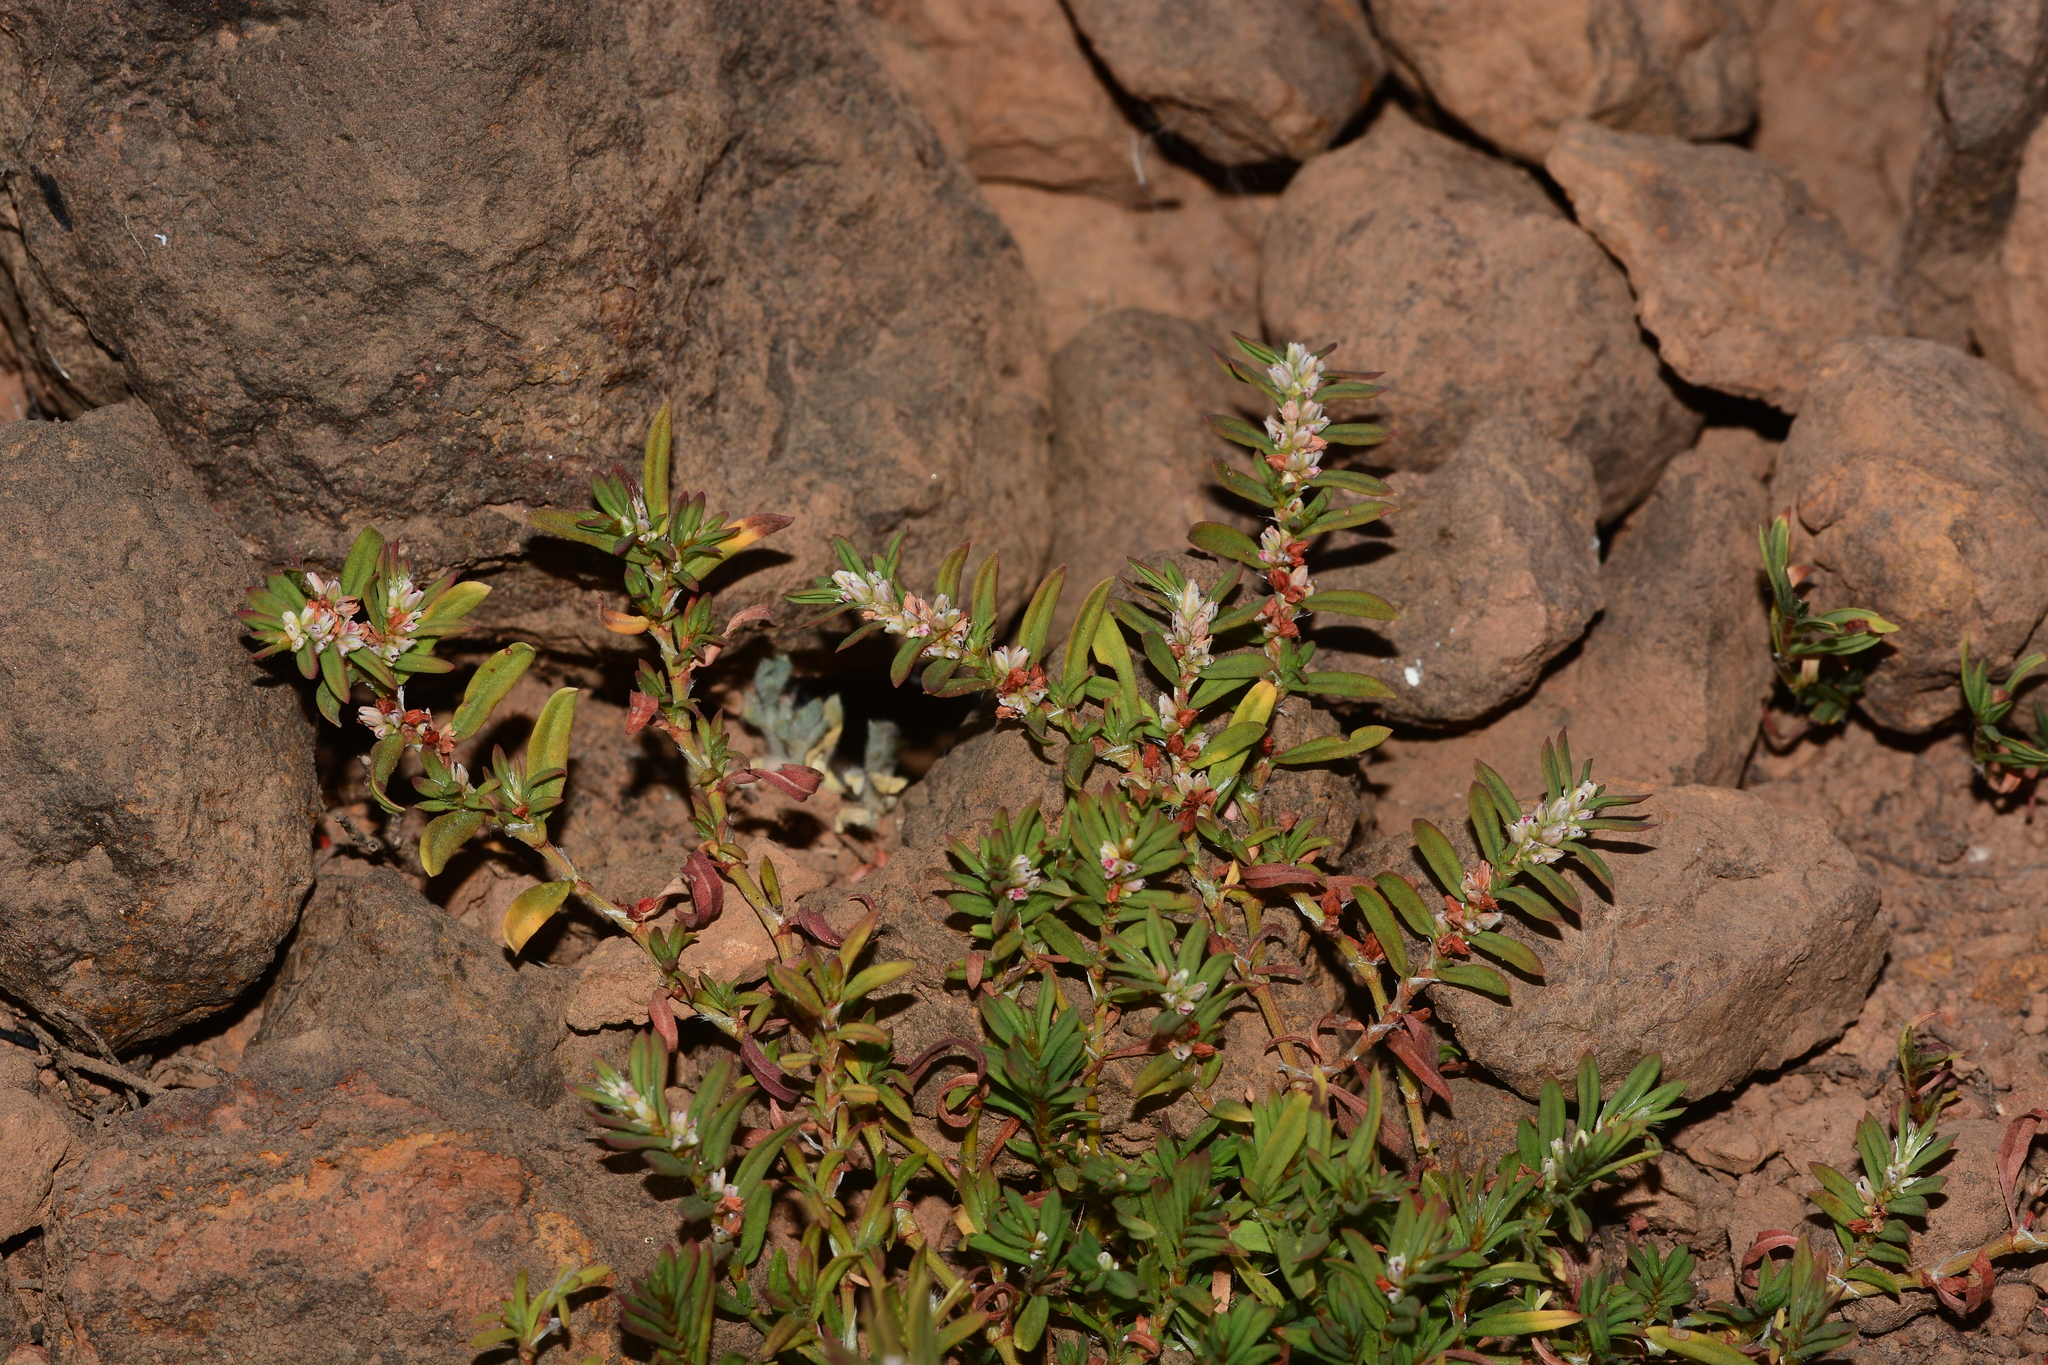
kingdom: Plantae
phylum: Tracheophyta
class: Magnoliopsida
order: Caryophyllales
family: Polygonaceae
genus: Polygonum
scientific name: Polygonum plebeium
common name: Common knotweed
